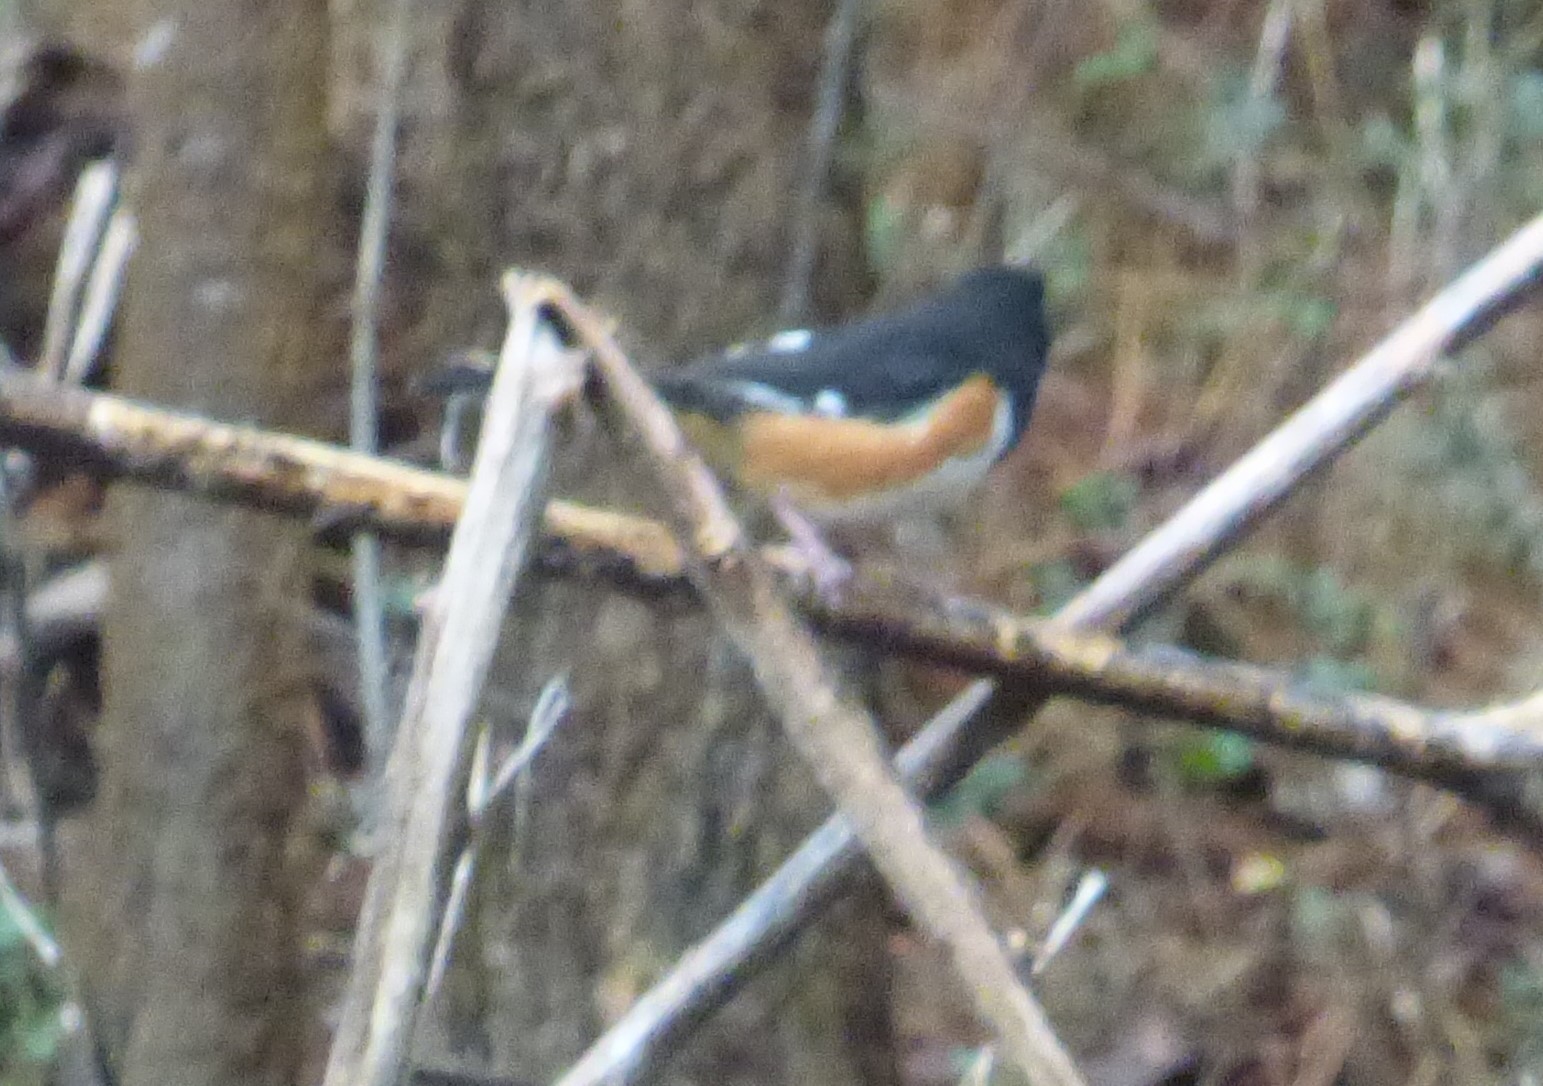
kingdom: Animalia
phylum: Chordata
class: Aves
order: Passeriformes
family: Passerellidae
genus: Pipilo
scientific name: Pipilo erythrophthalmus
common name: Eastern towhee
